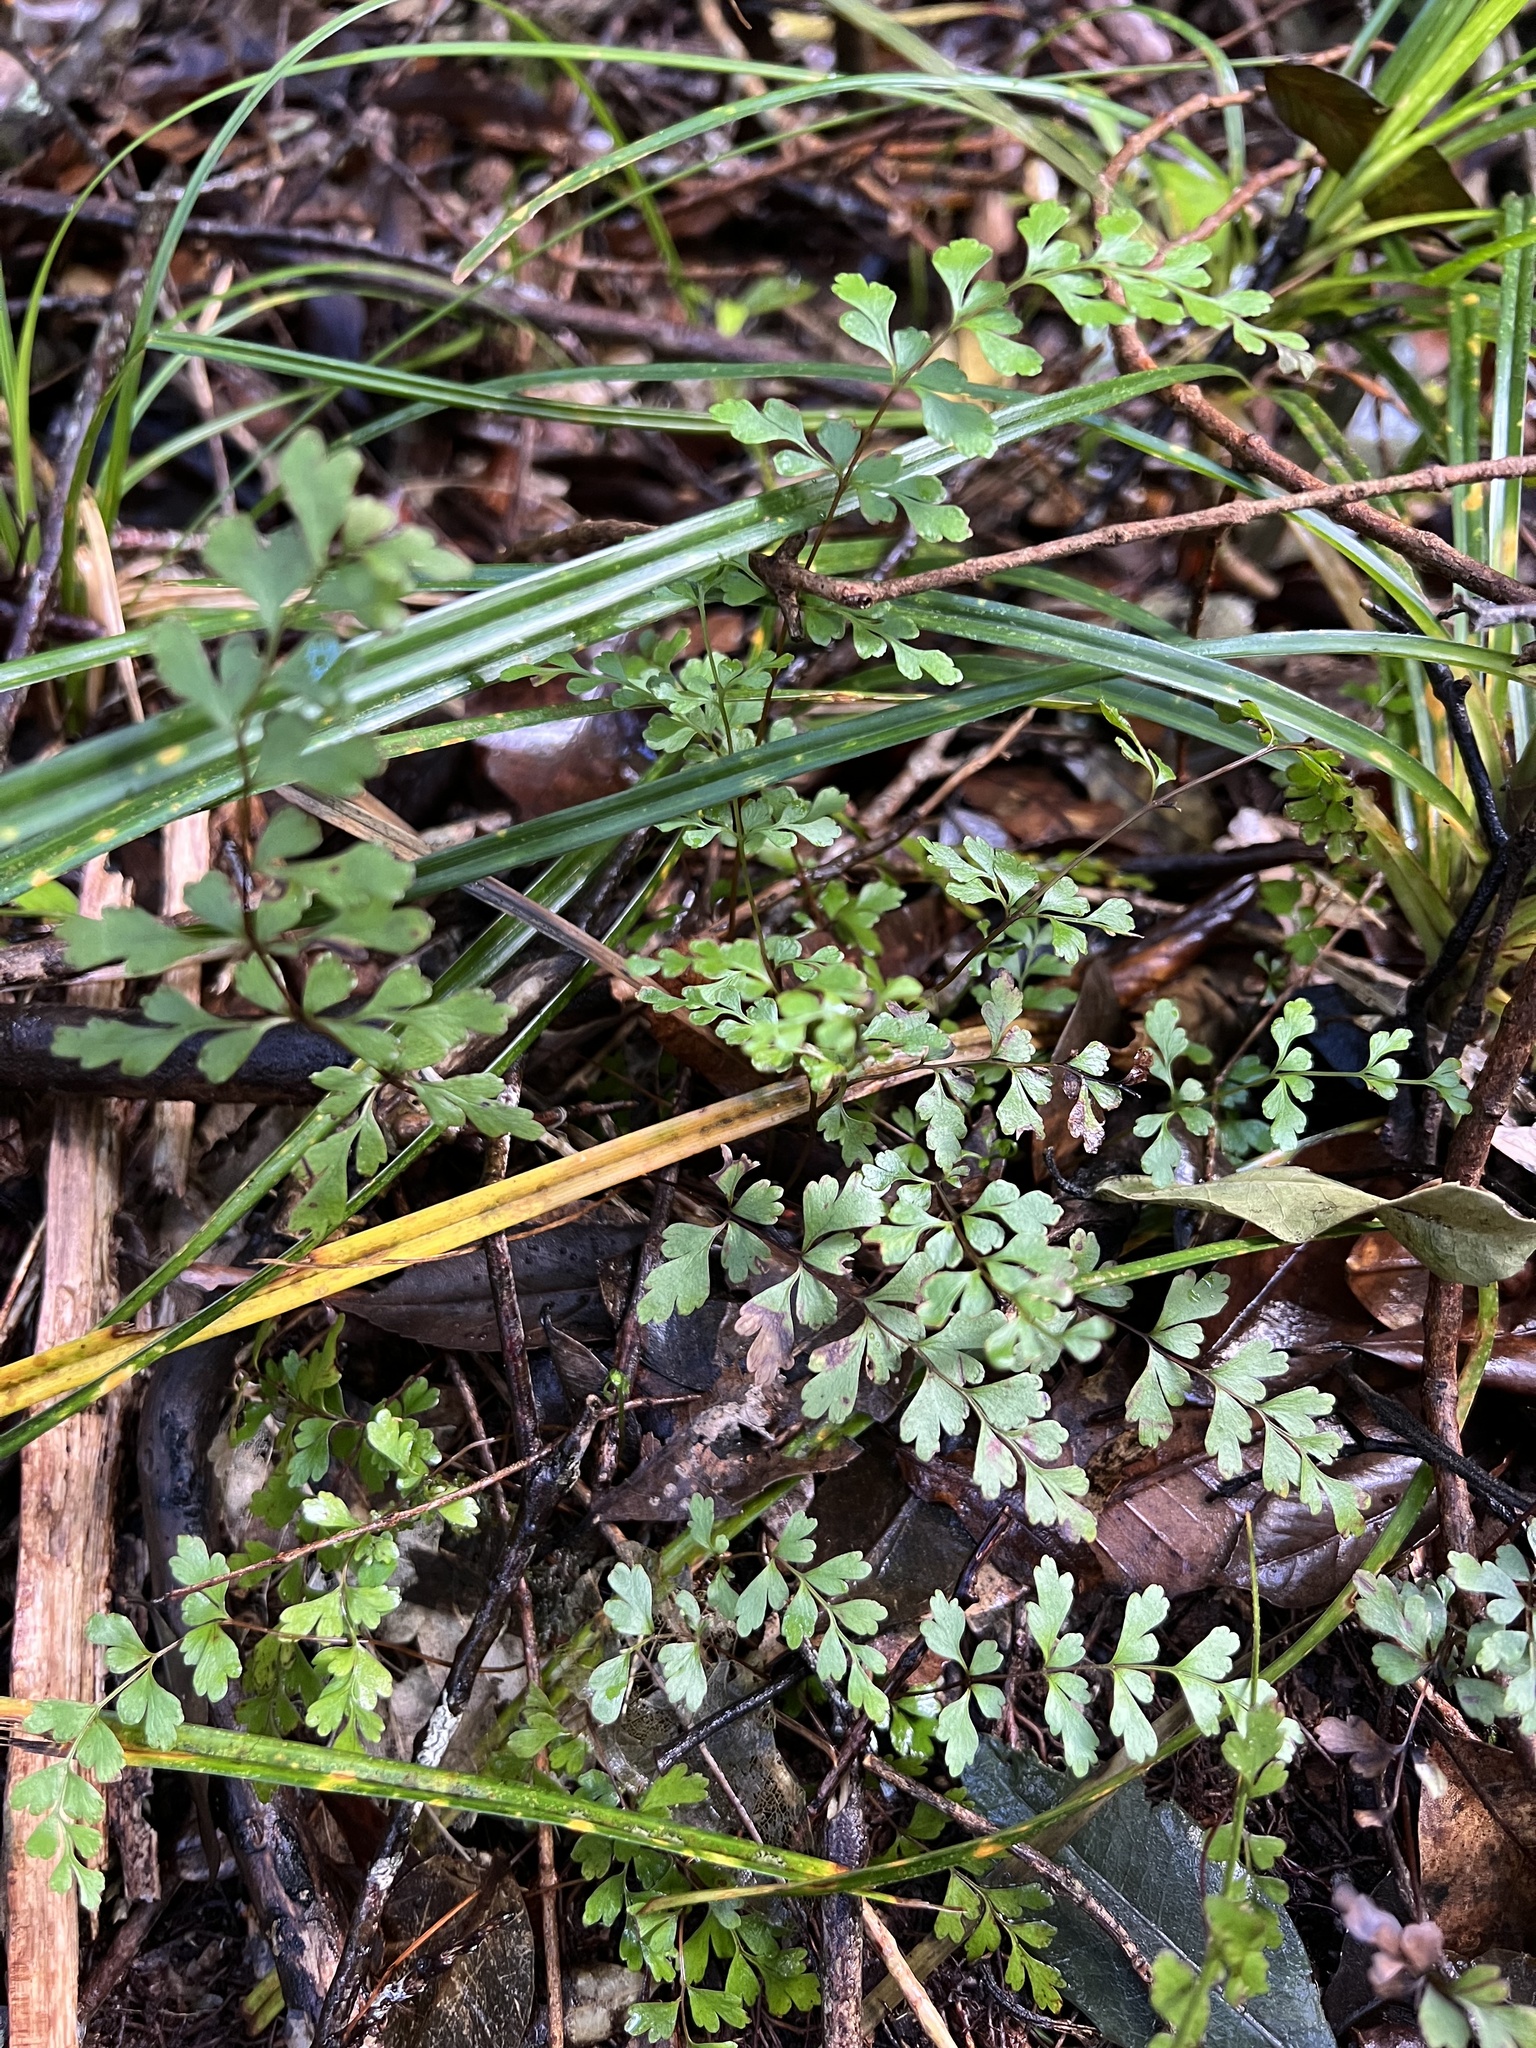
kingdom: Plantae
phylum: Tracheophyta
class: Polypodiopsida
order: Polypodiales
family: Lindsaeaceae
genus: Lindsaea
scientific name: Lindsaea trichomanoides
